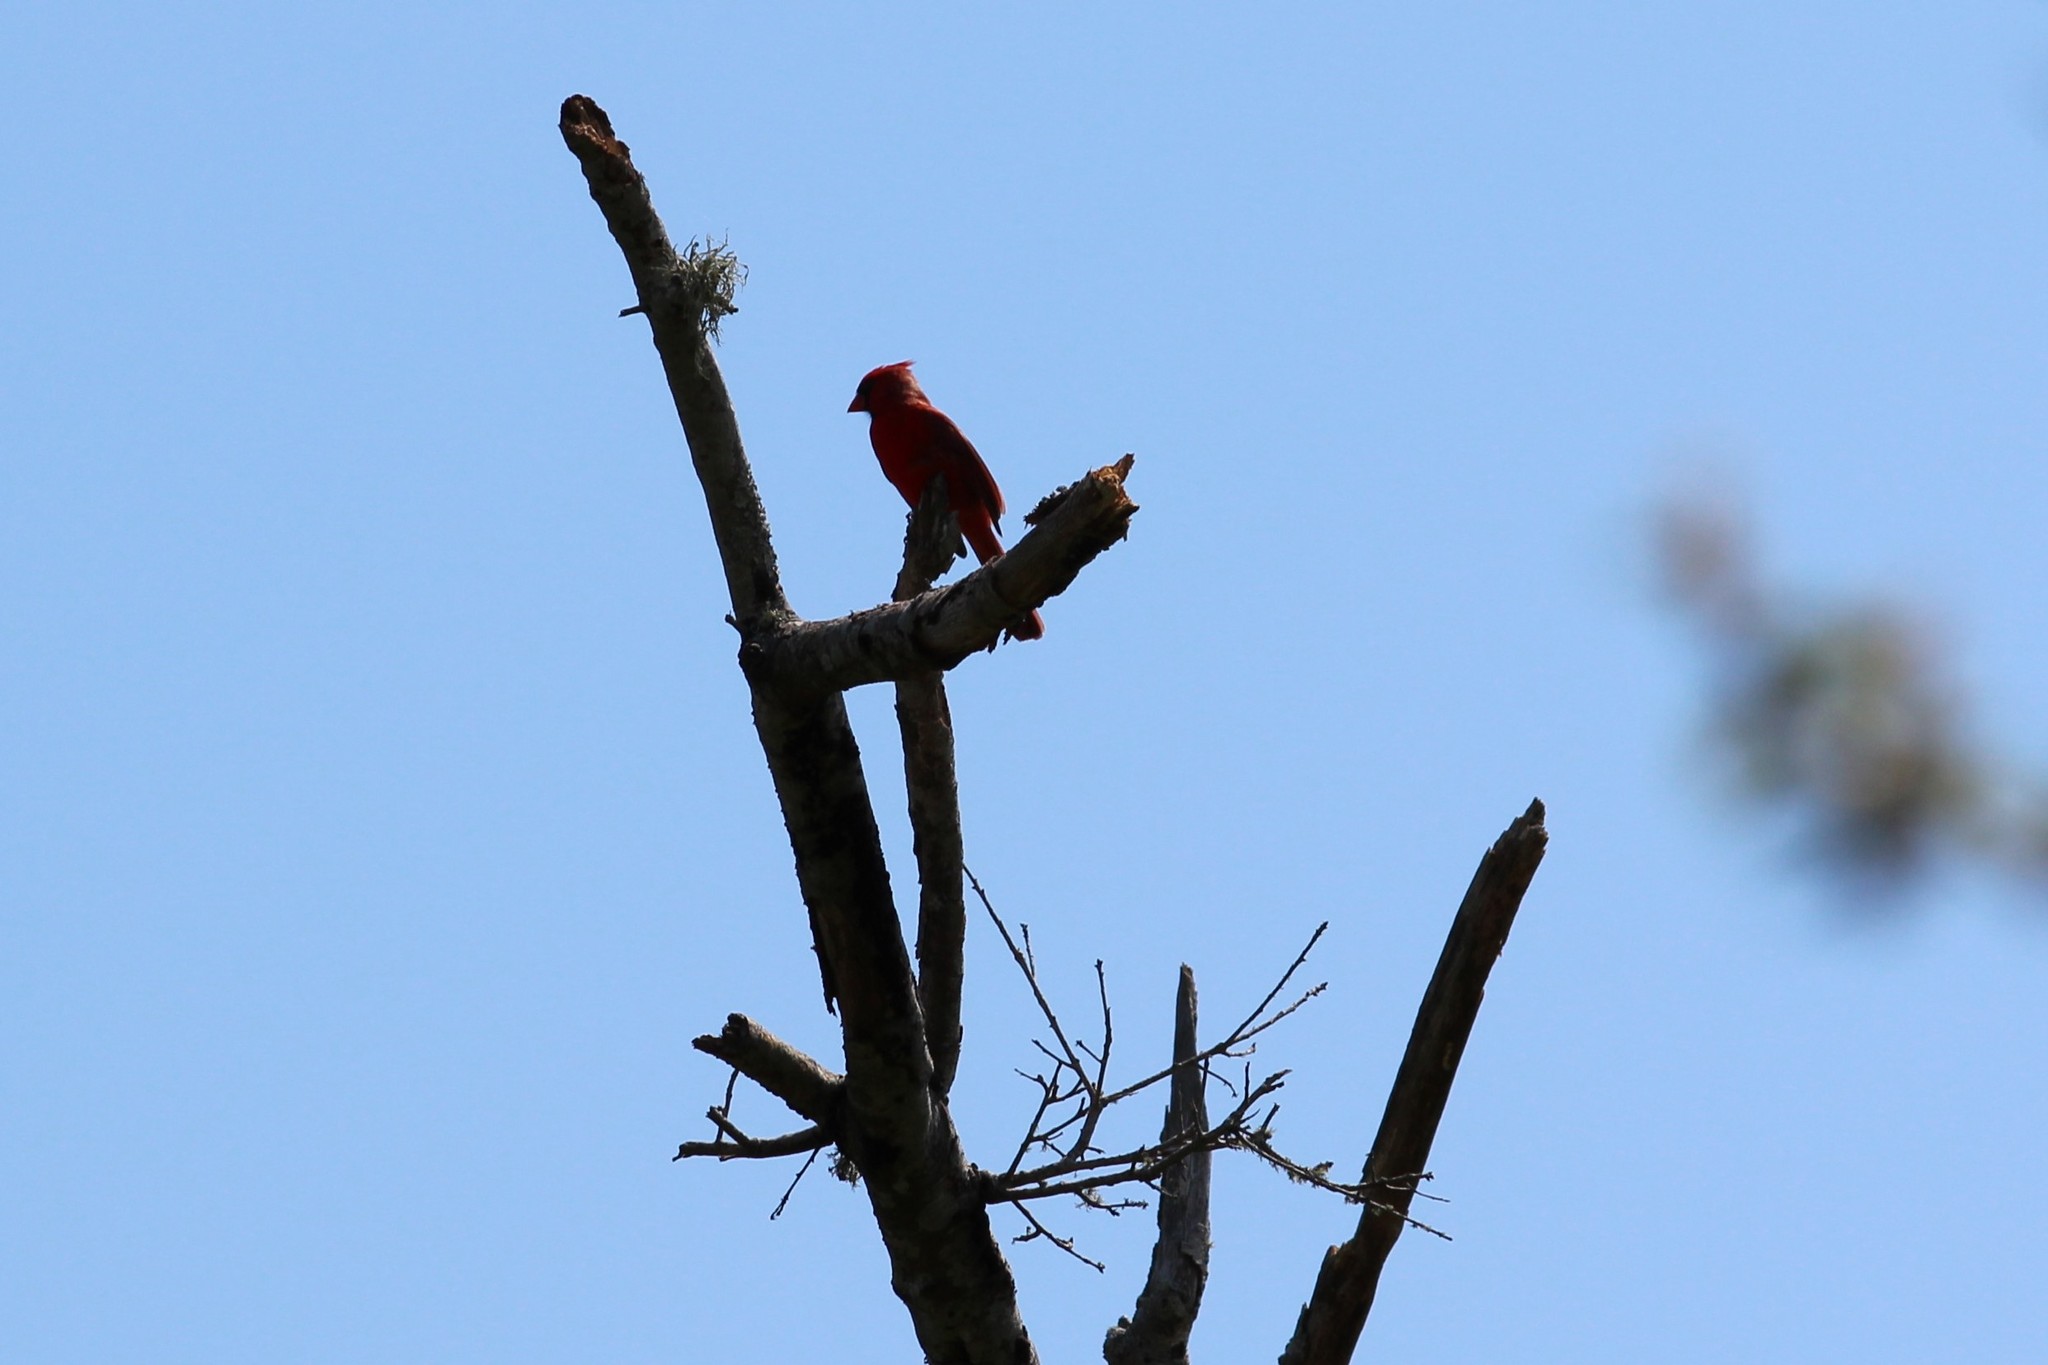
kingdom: Animalia
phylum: Chordata
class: Aves
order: Passeriformes
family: Cardinalidae
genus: Cardinalis
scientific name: Cardinalis cardinalis
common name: Northern cardinal
